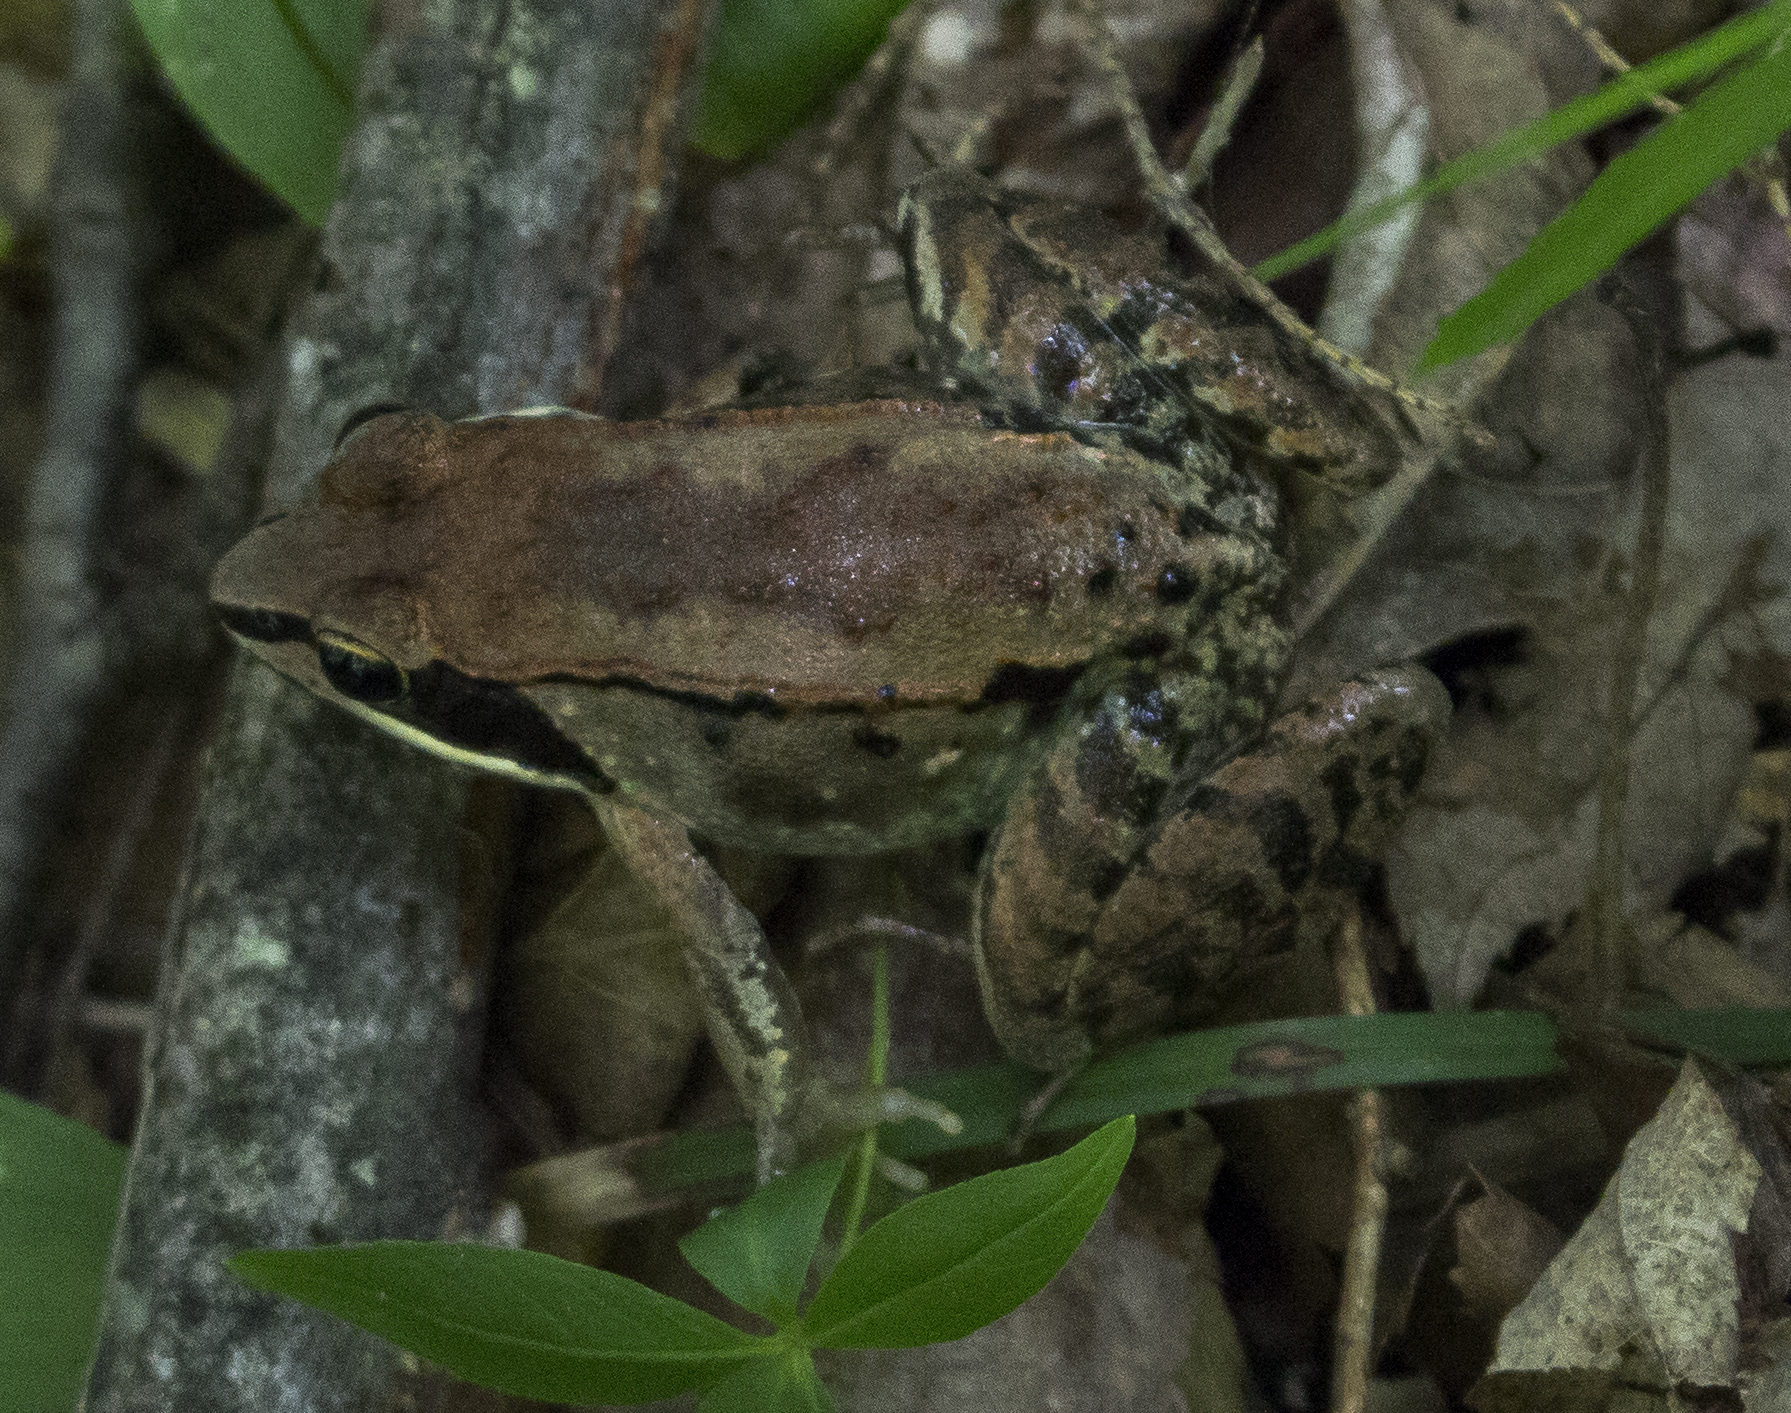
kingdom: Animalia
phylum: Chordata
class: Amphibia
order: Anura
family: Ranidae
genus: Lithobates
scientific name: Lithobates sylvaticus
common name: Wood frog
